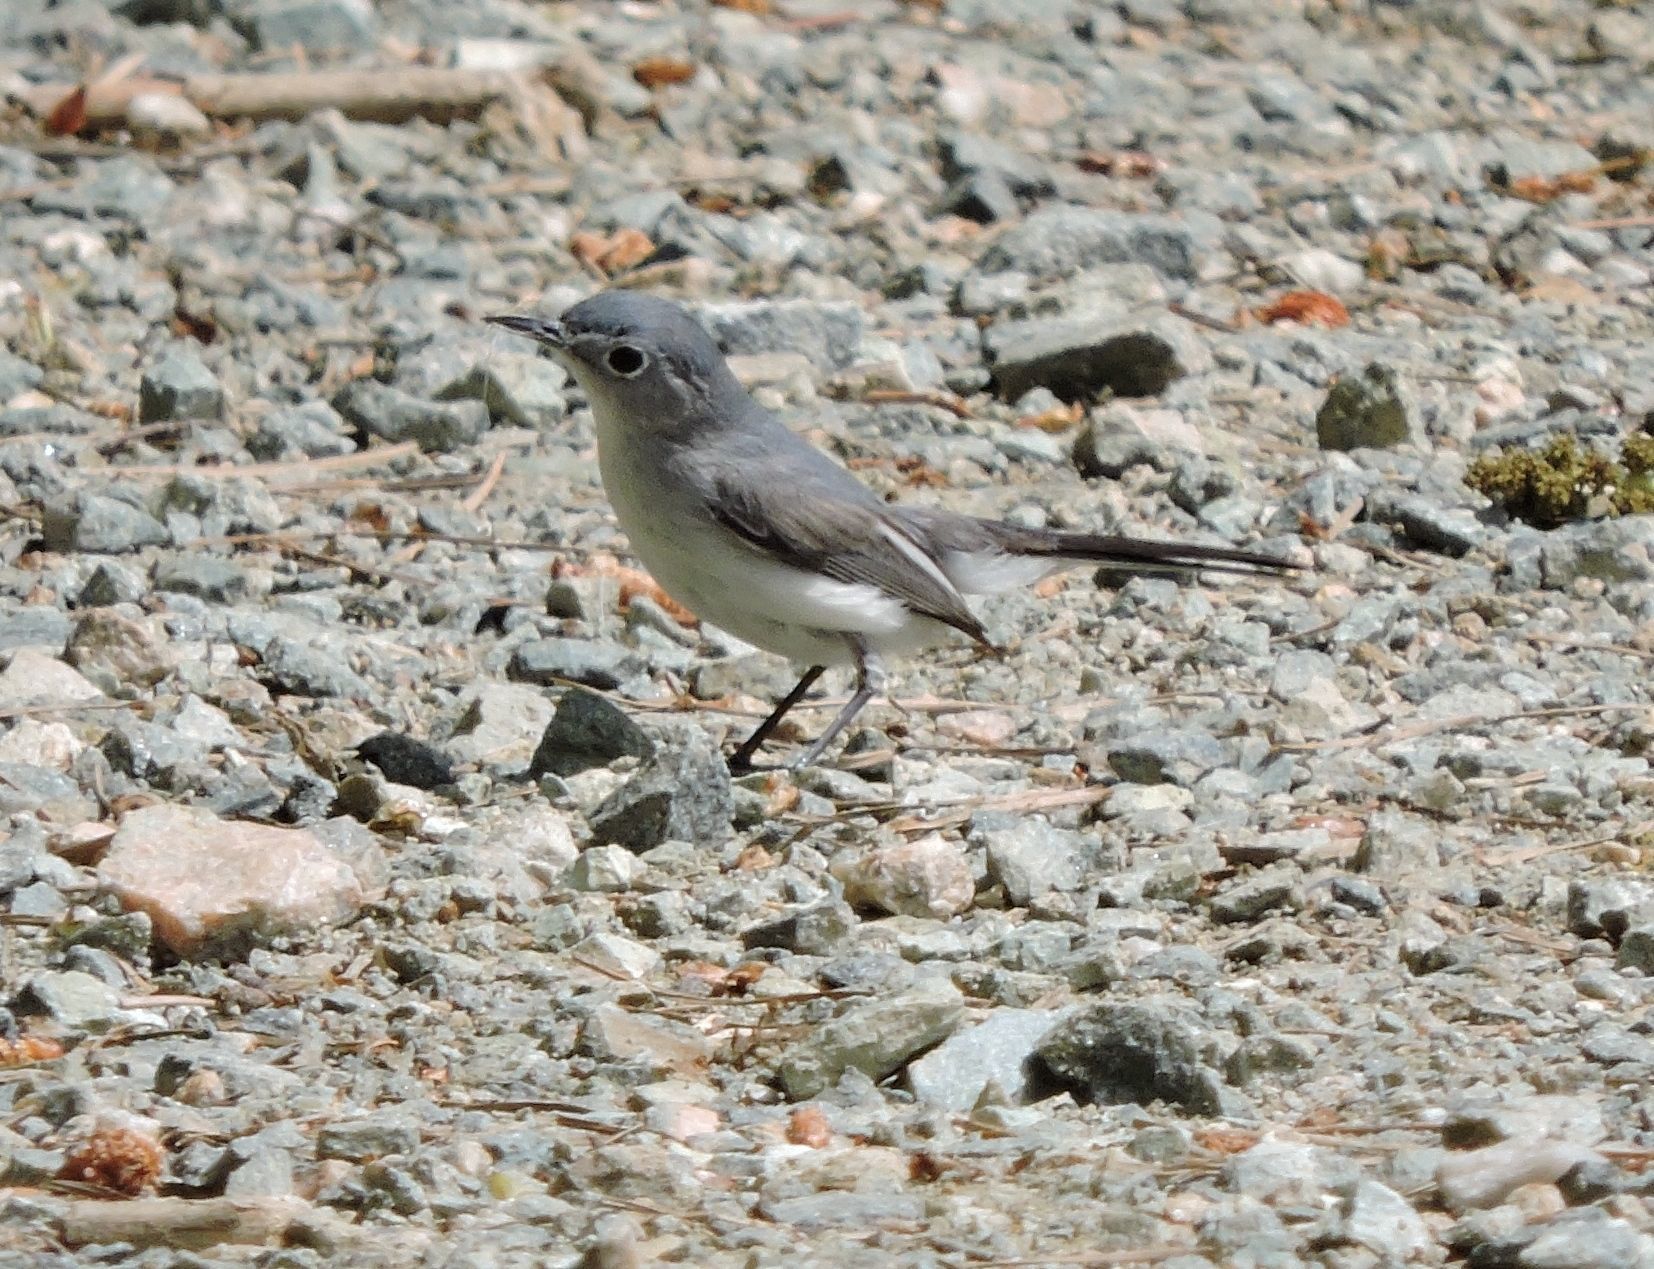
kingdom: Animalia
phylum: Chordata
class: Aves
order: Passeriformes
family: Polioptilidae
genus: Polioptila
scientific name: Polioptila caerulea
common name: Blue-gray gnatcatcher
